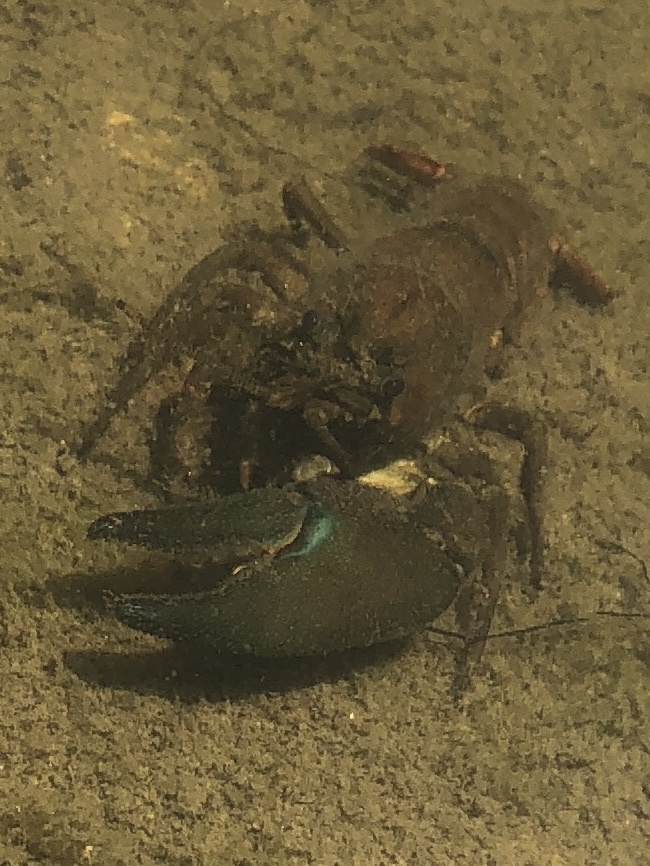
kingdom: Animalia
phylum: Arthropoda
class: Malacostraca
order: Decapoda
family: Astacidae
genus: Pacifastacus
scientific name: Pacifastacus leniusculus
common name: Signal crayfish
